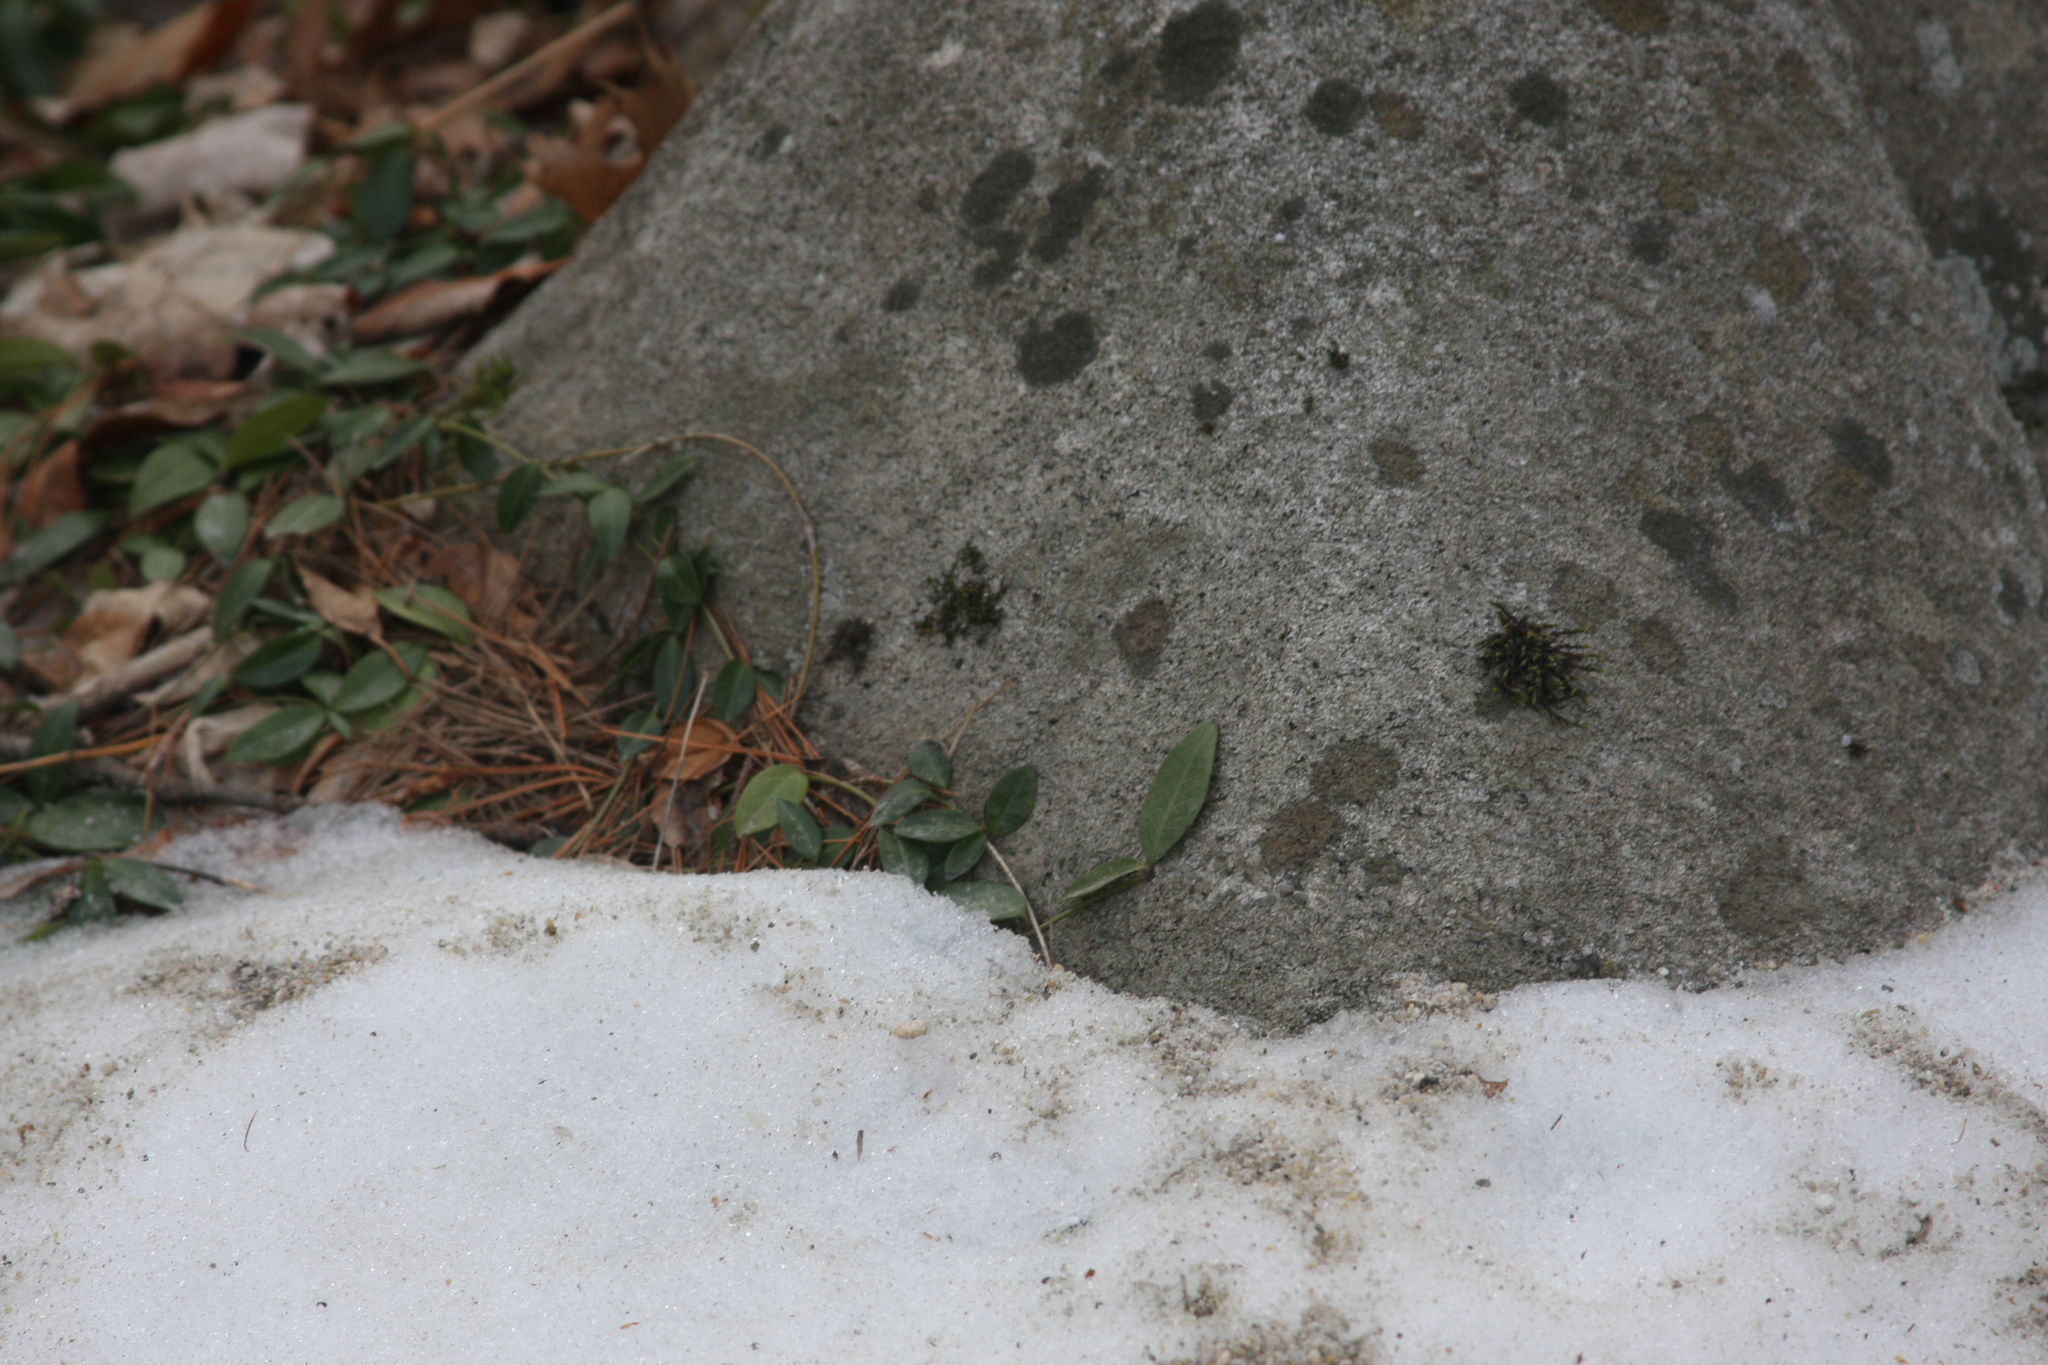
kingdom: Plantae
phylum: Tracheophyta
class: Magnoliopsida
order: Celastrales
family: Celastraceae
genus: Euonymus
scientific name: Euonymus fortunei
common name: Climbing euonymus
